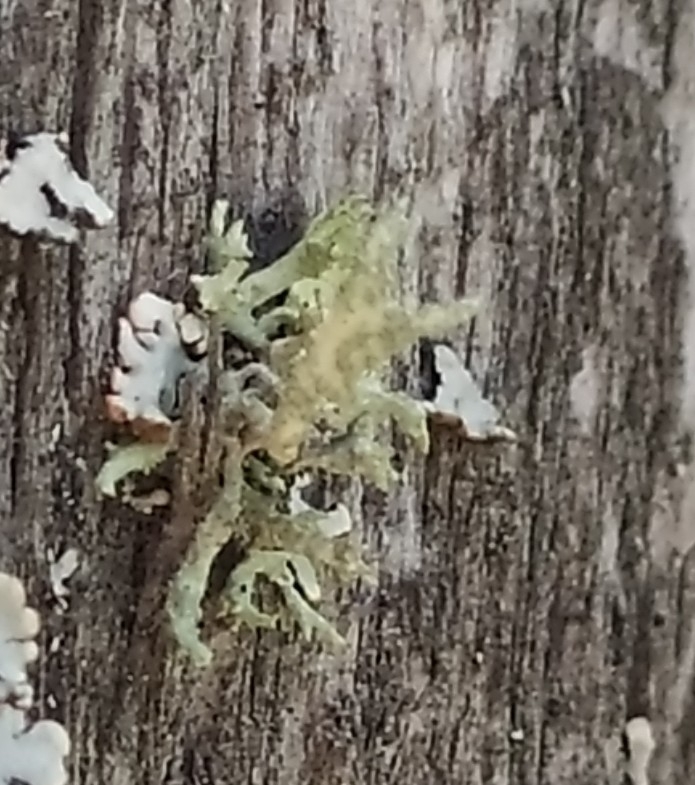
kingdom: Fungi
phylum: Ascomycota
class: Lecanoromycetes
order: Lecanorales
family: Parmeliaceae
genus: Evernia
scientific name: Evernia prunastri
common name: Oak moss
